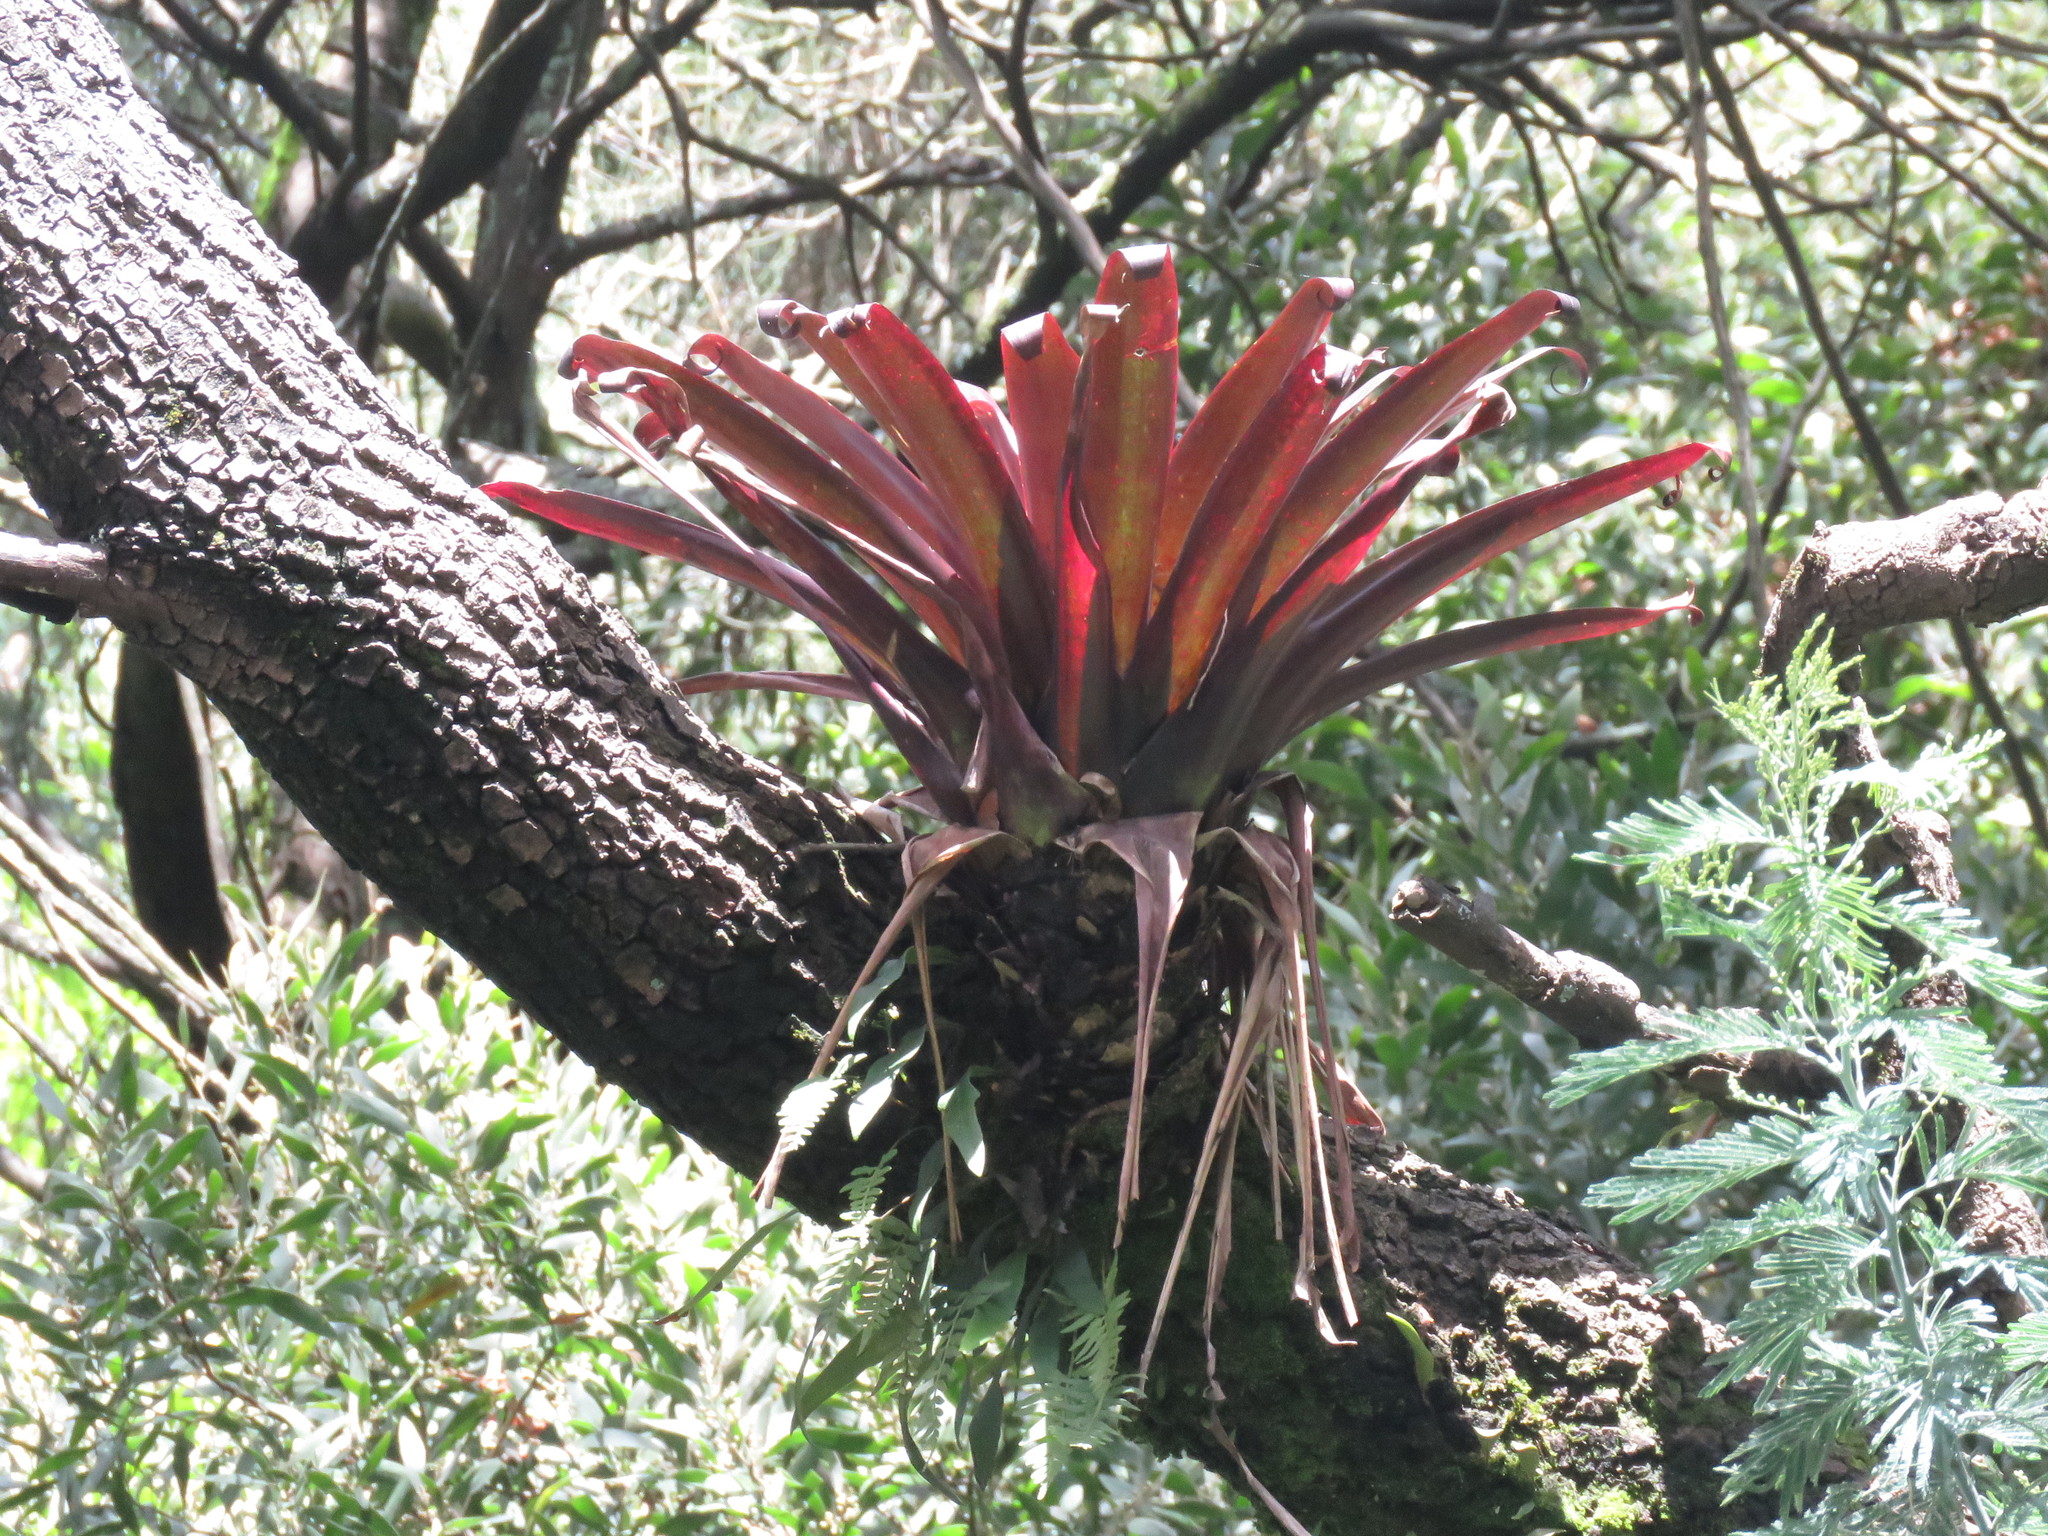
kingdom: Plantae
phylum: Tracheophyta
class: Liliopsida
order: Poales
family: Bromeliaceae
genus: Tillandsia
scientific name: Tillandsia denudata
